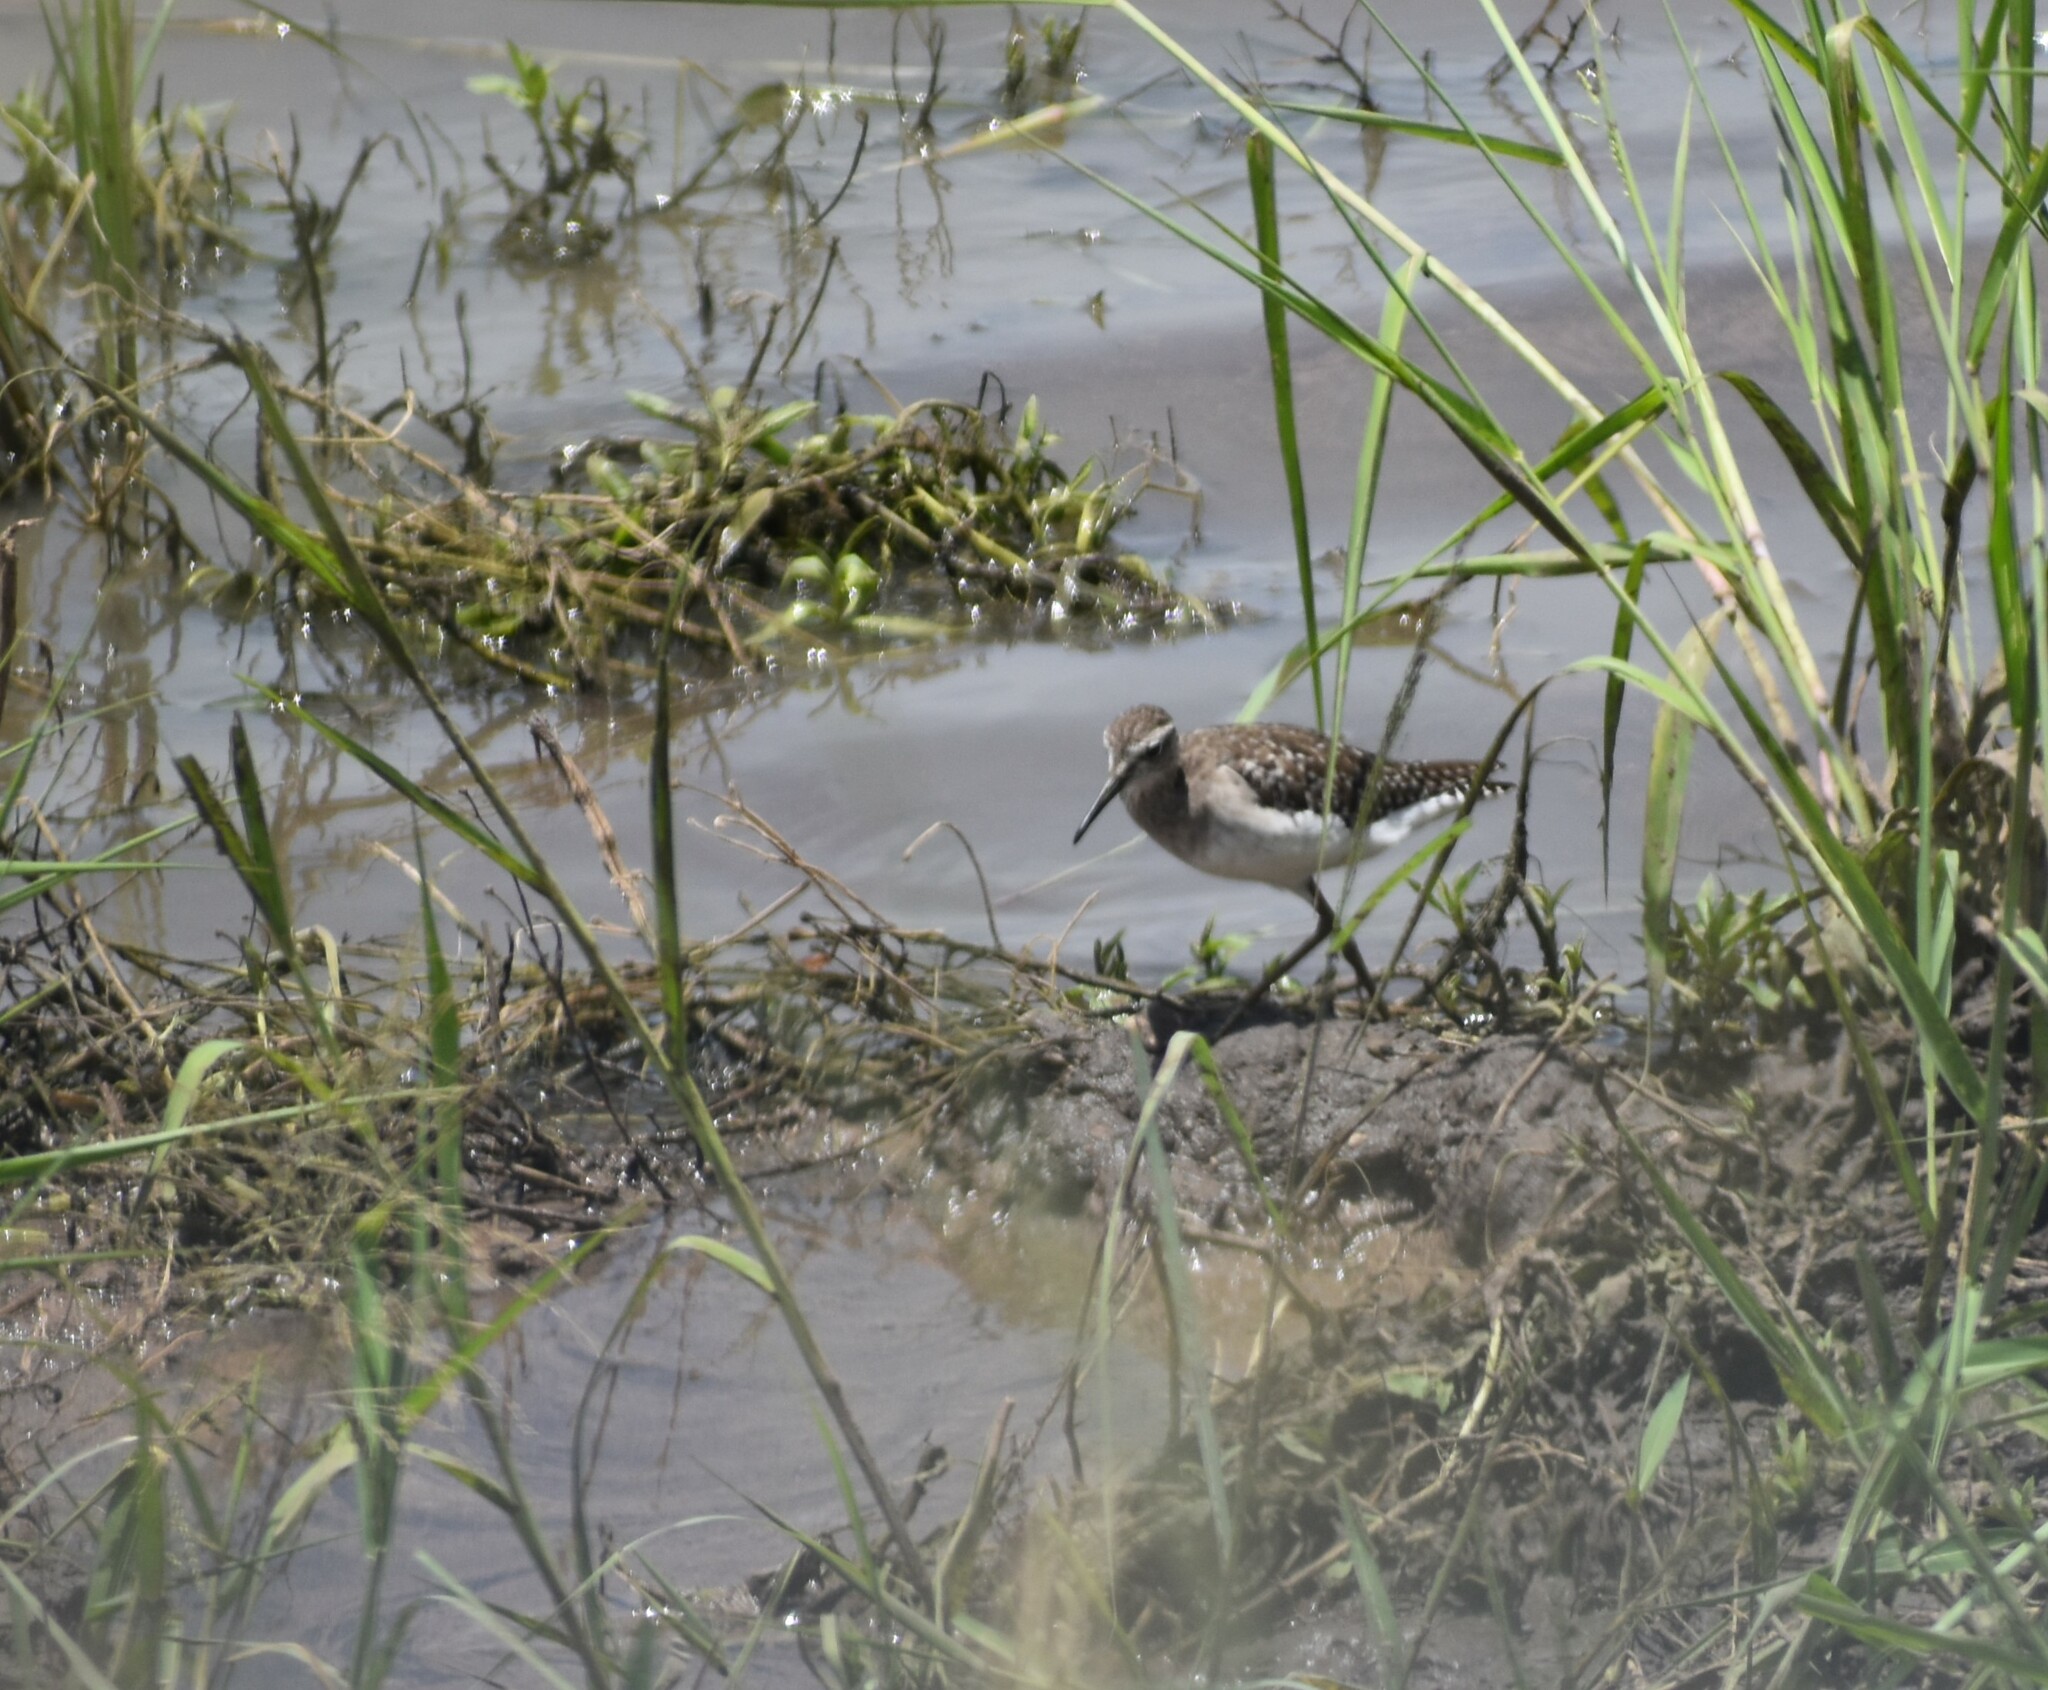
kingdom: Animalia
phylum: Chordata
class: Aves
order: Charadriiformes
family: Scolopacidae
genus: Tringa
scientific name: Tringa glareola
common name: Wood sandpiper
